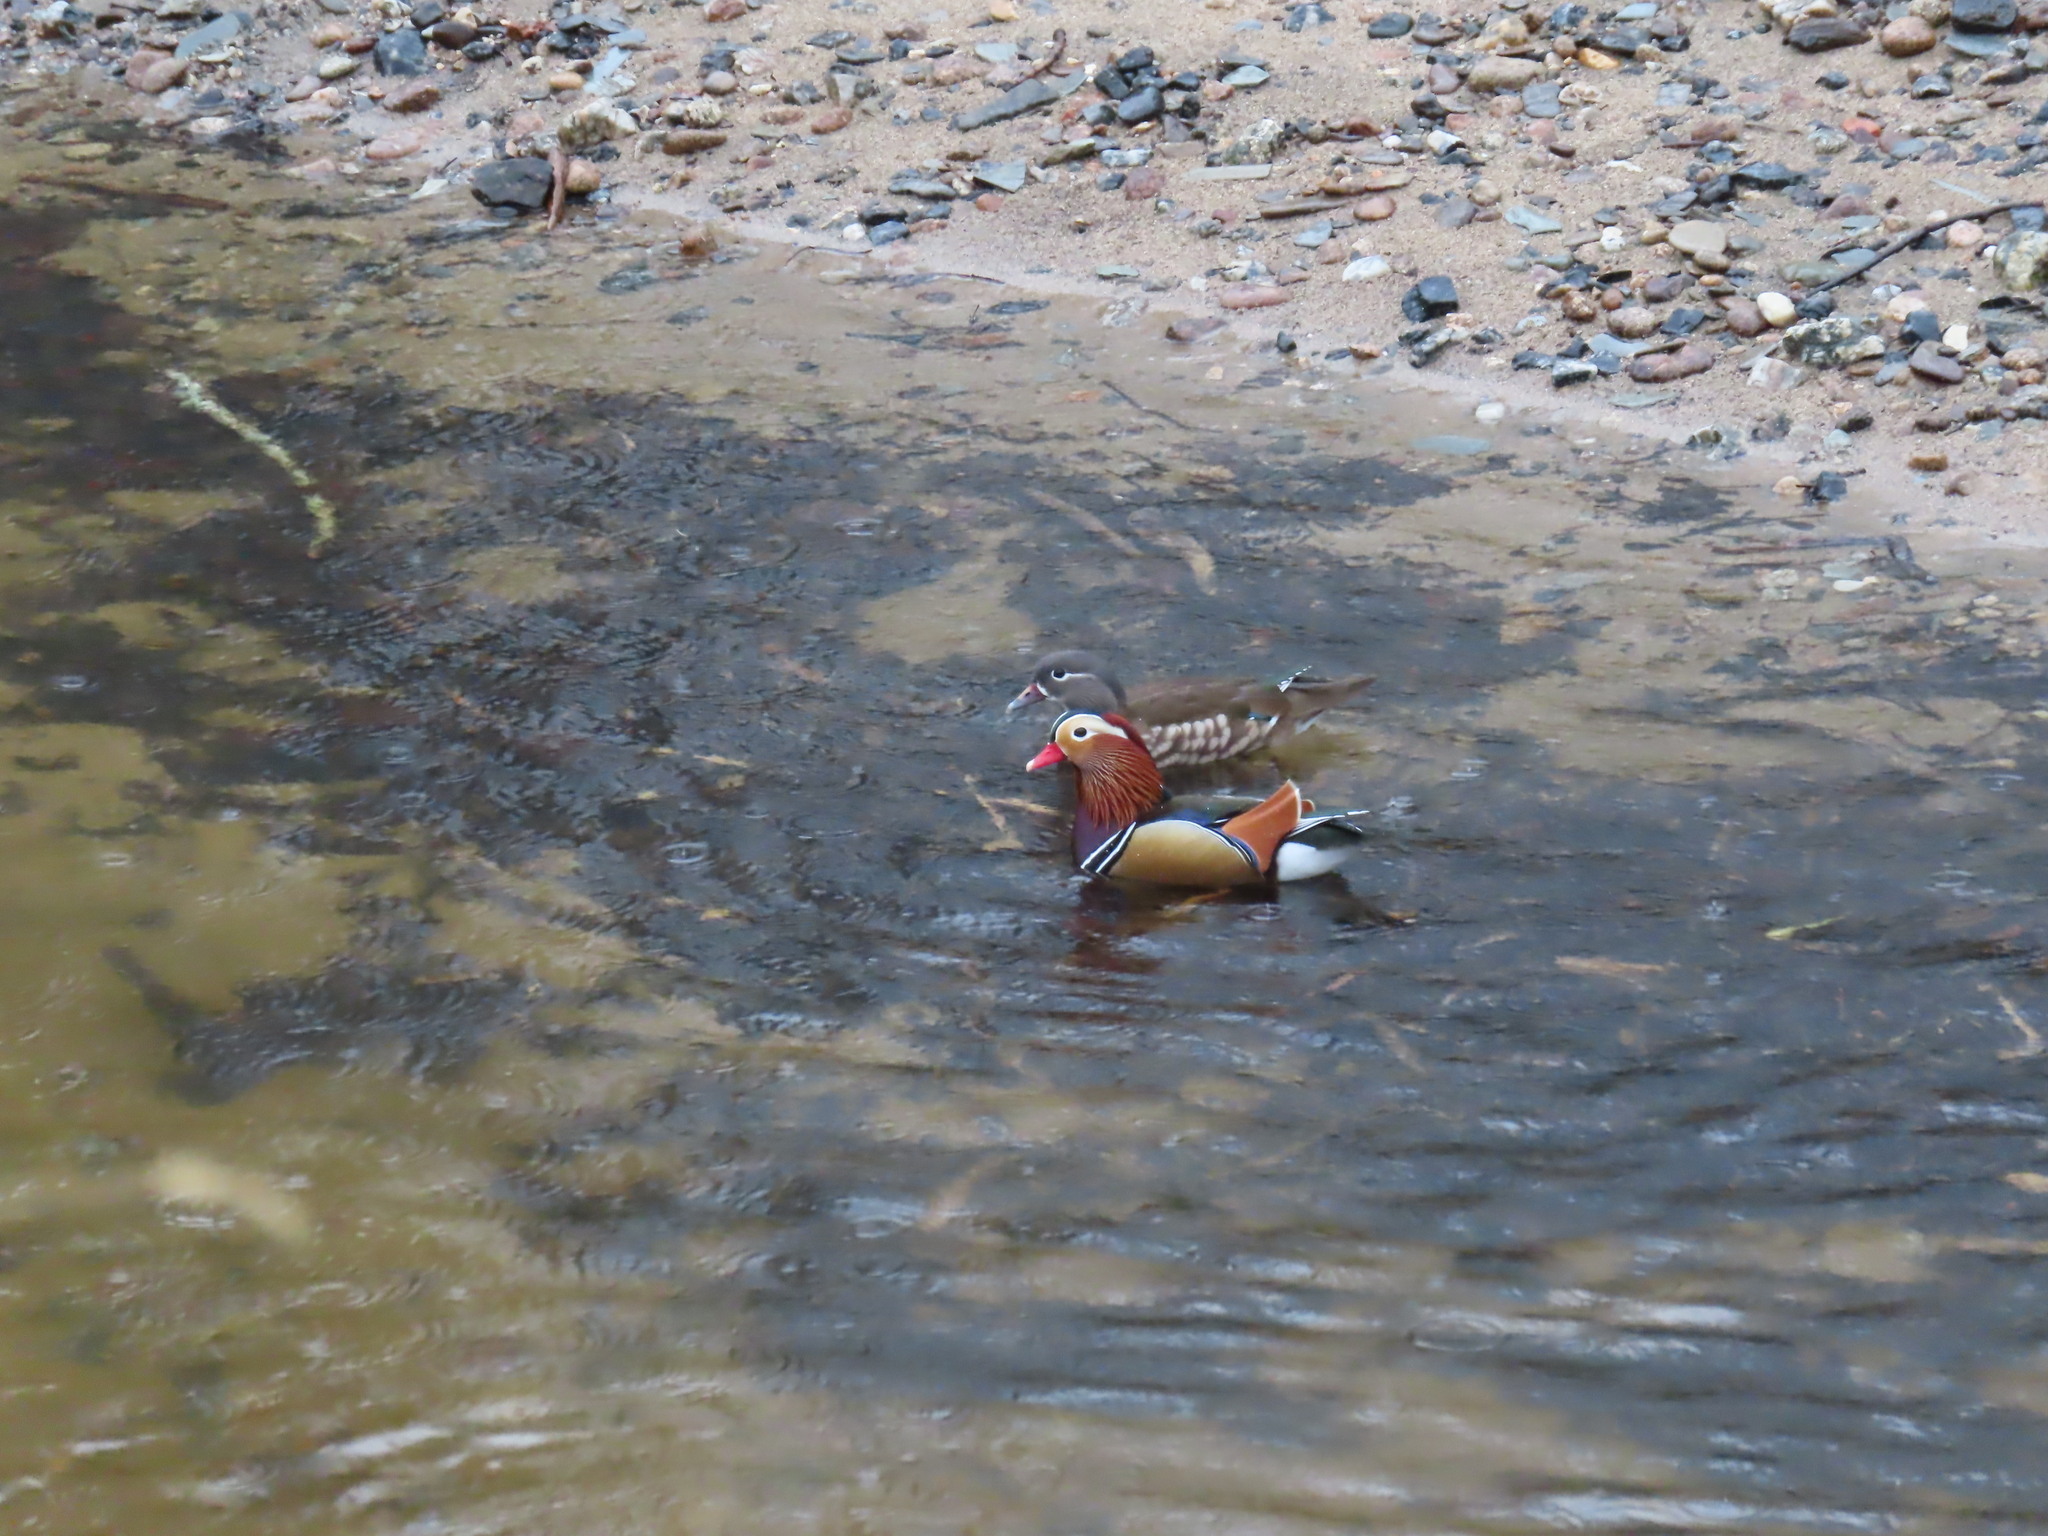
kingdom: Animalia
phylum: Chordata
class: Aves
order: Anseriformes
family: Anatidae
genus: Aix
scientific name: Aix galericulata
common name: Mandarin duck
